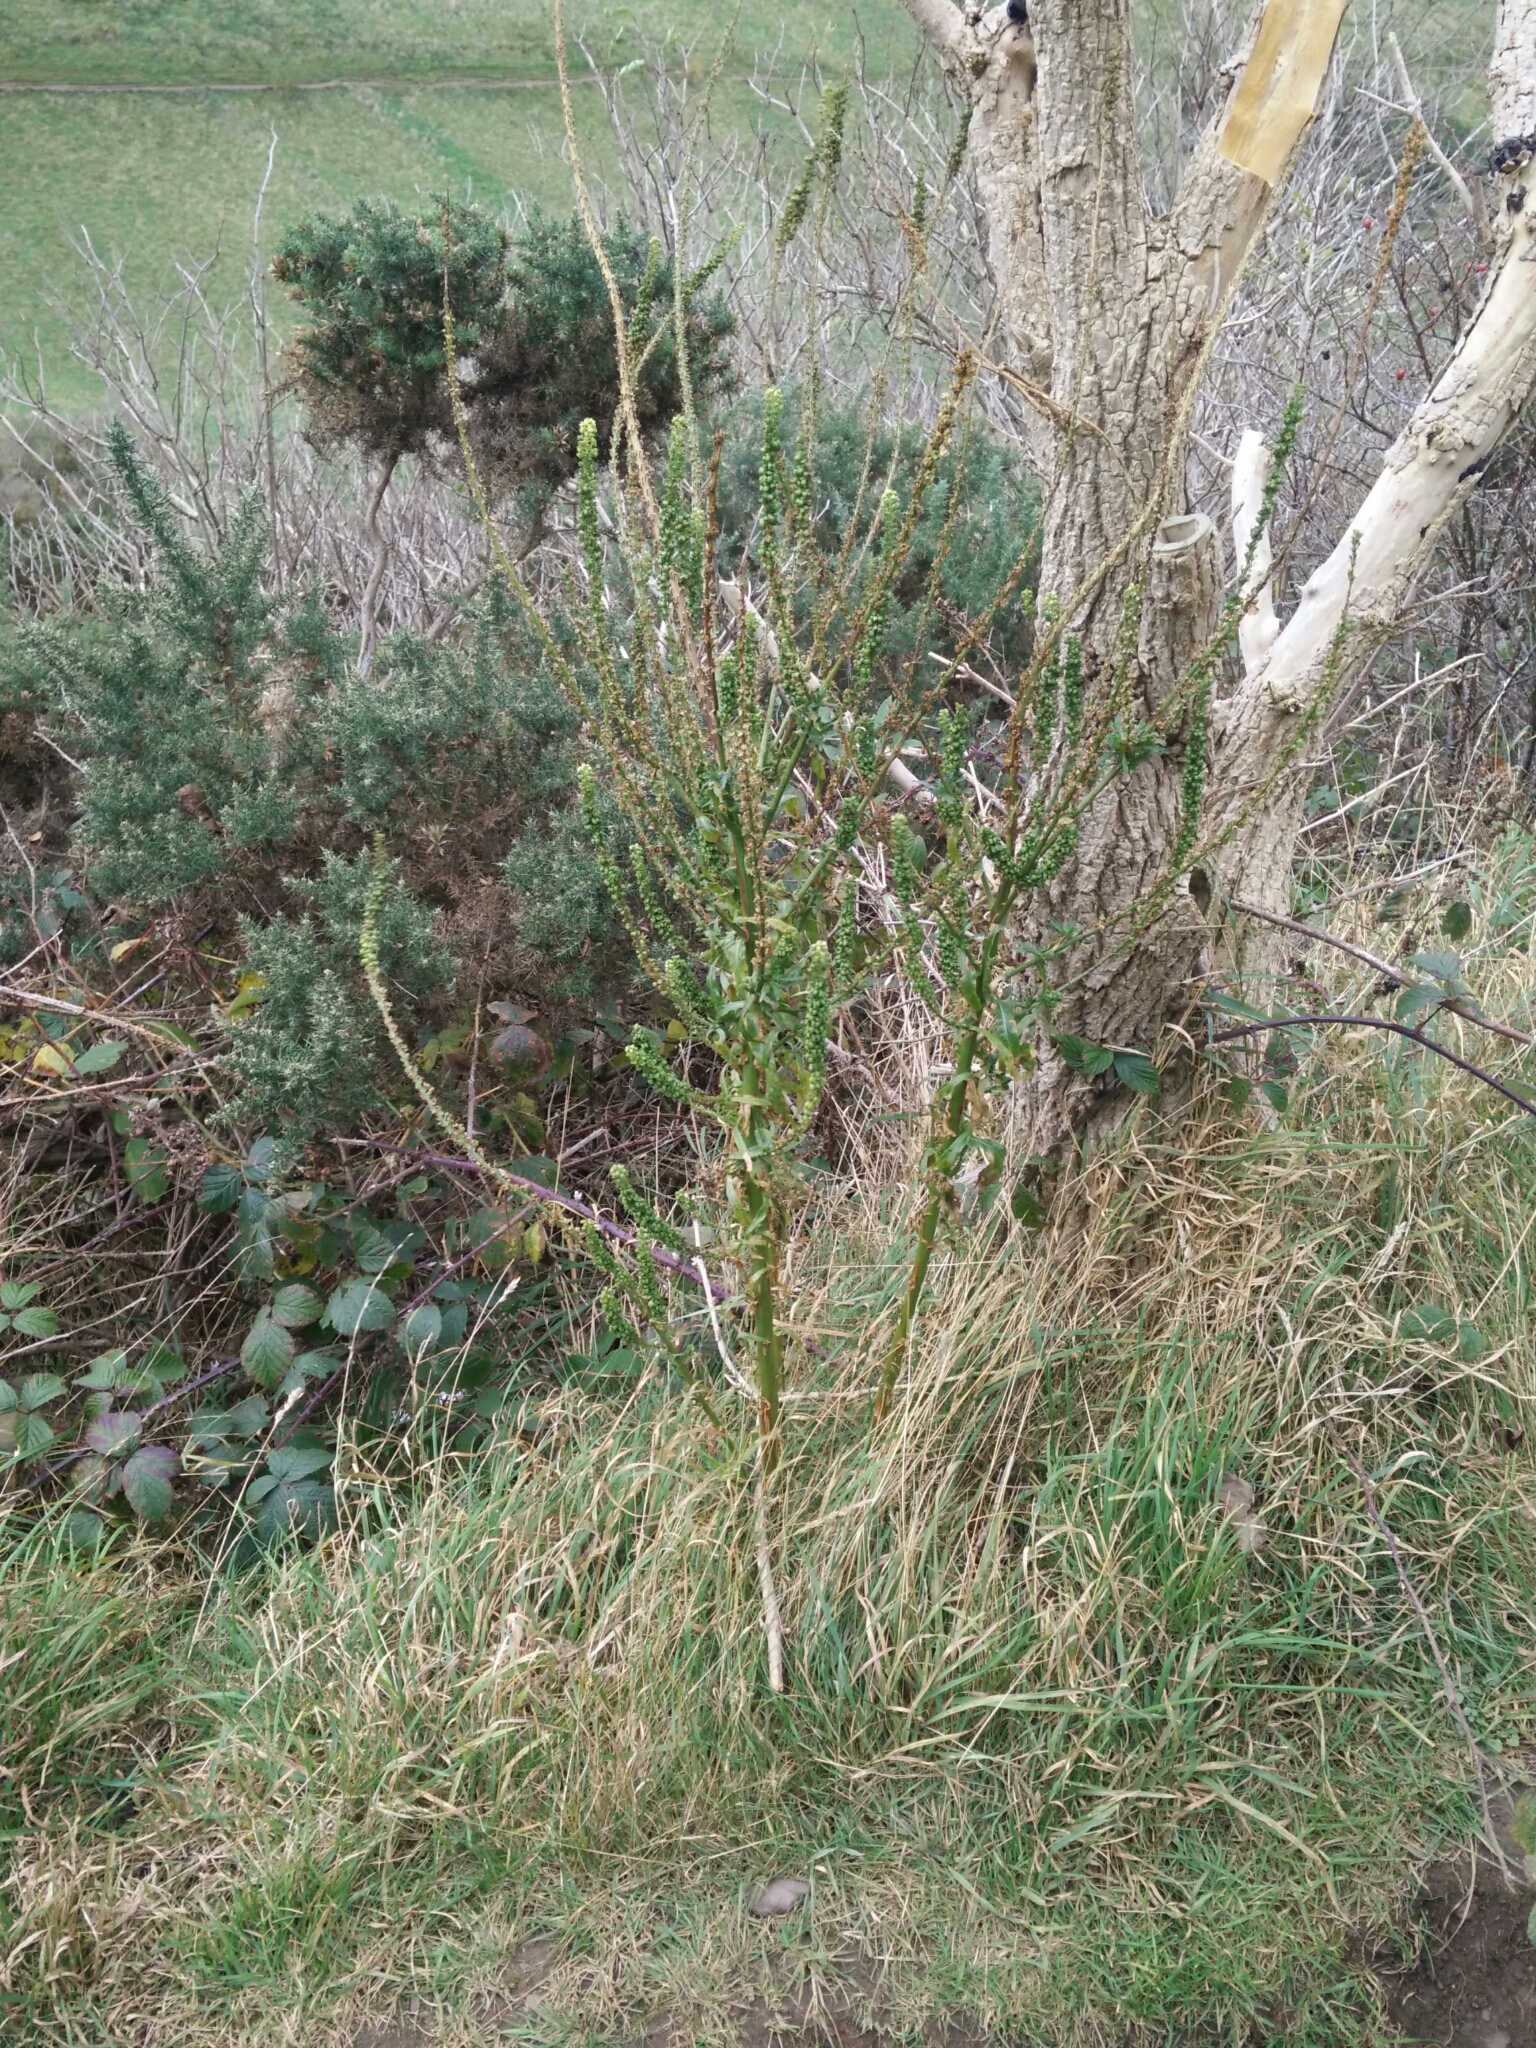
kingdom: Plantae
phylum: Tracheophyta
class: Magnoliopsida
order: Brassicales
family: Resedaceae
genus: Reseda
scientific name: Reseda luteola
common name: Weld
